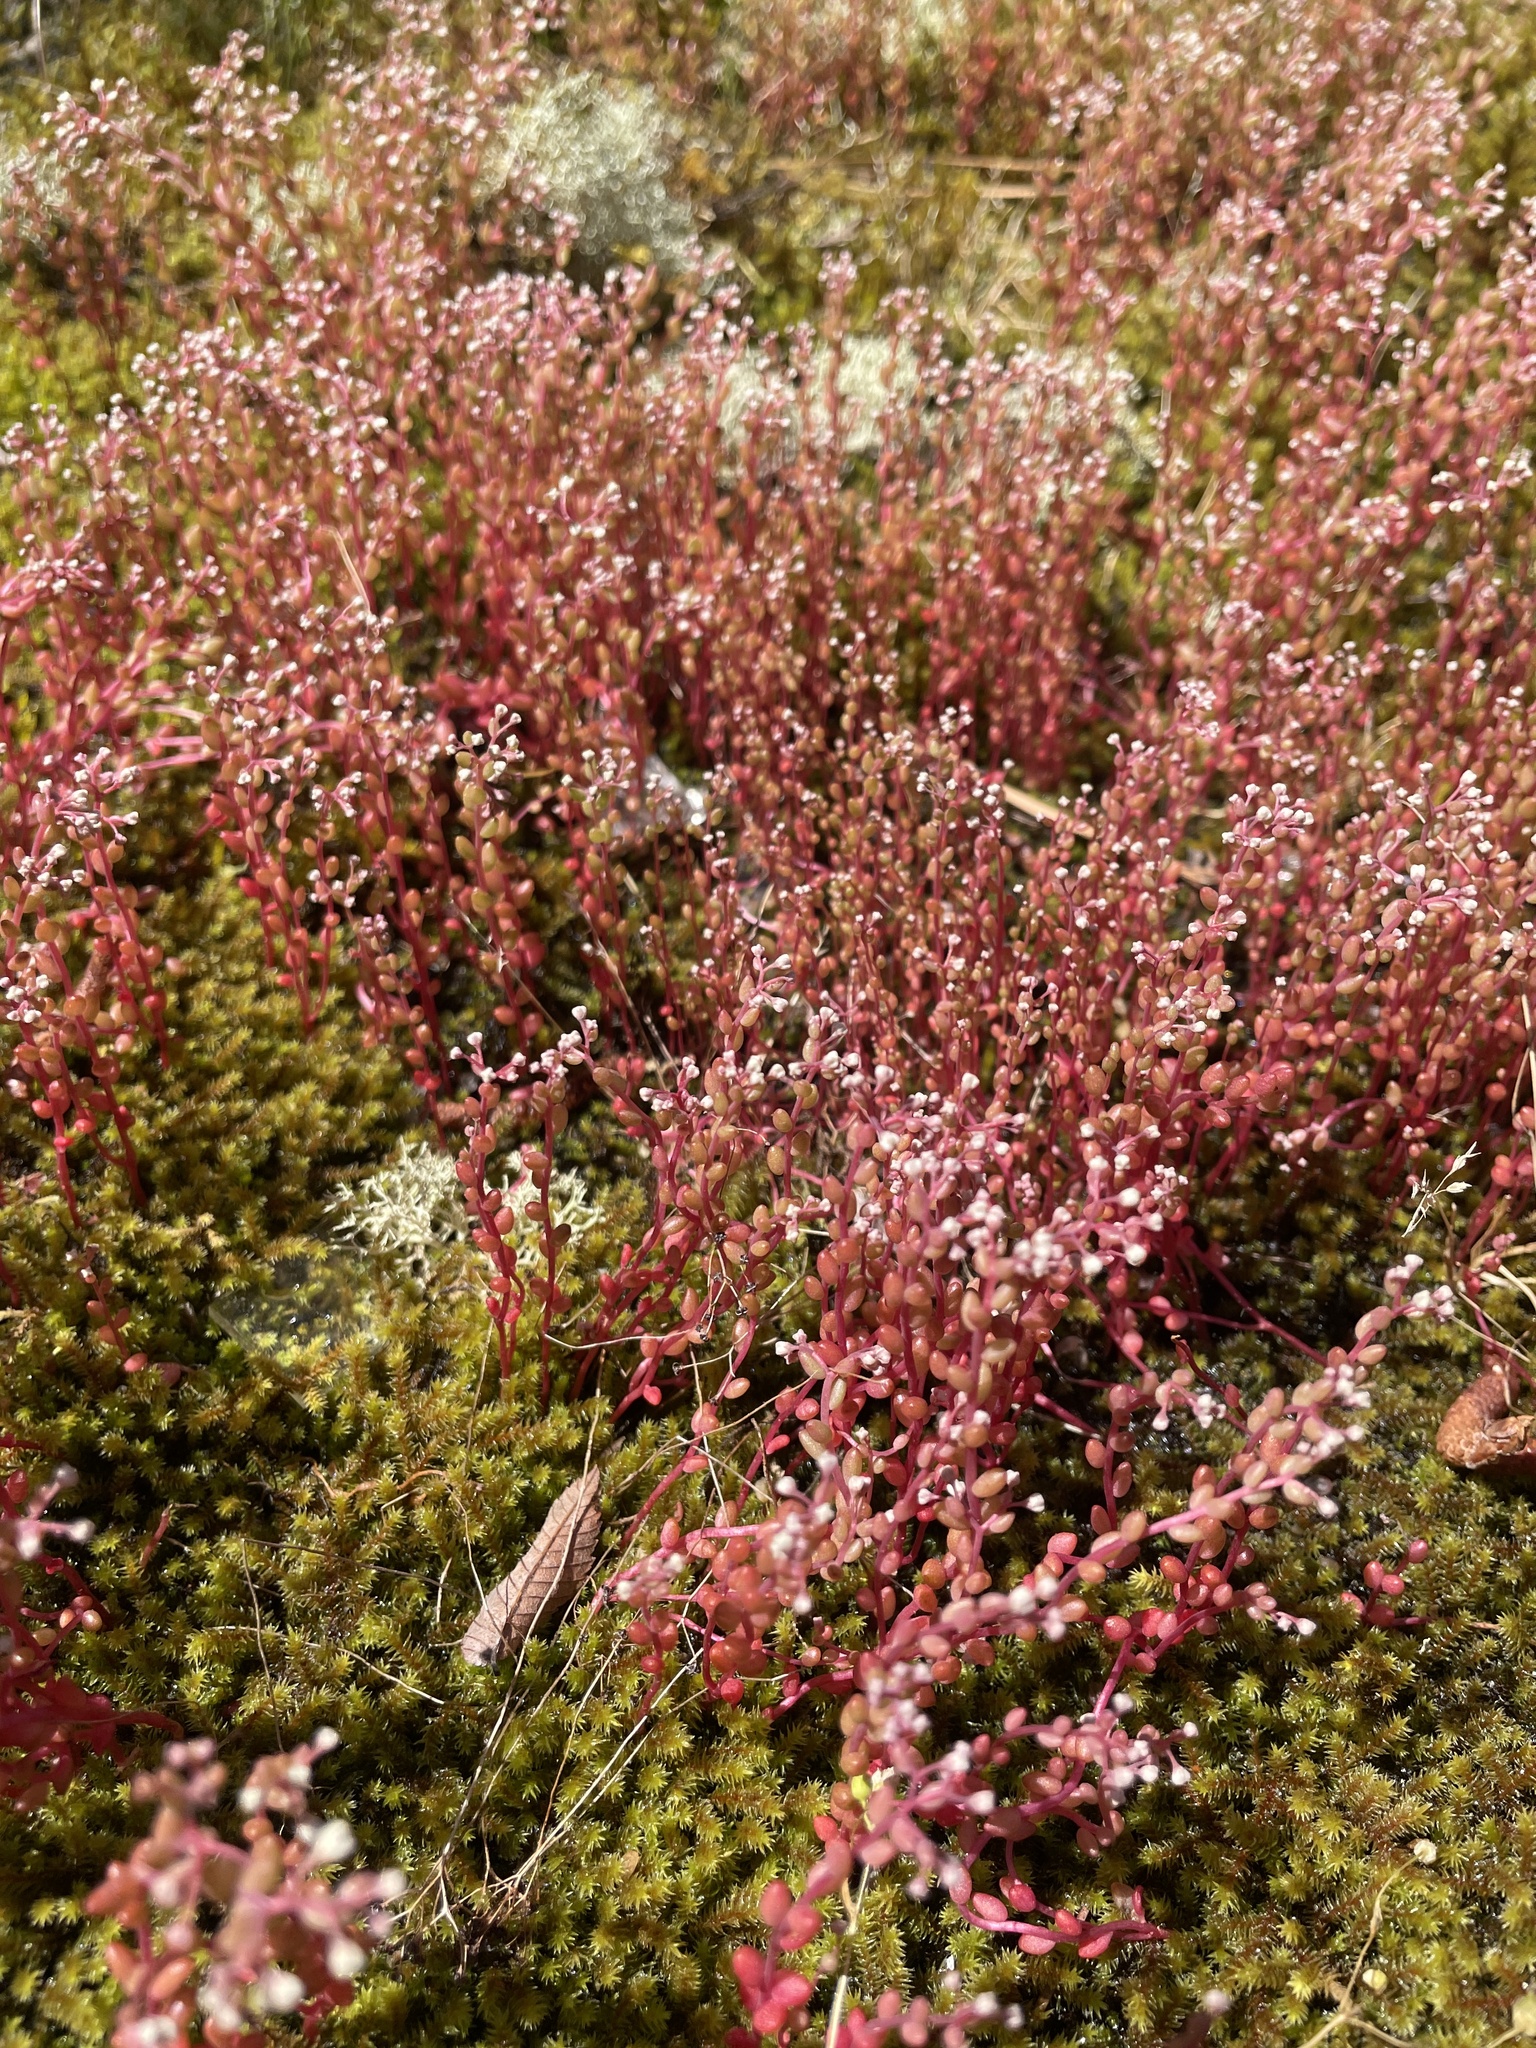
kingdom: Plantae
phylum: Tracheophyta
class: Magnoliopsida
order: Saxifragales
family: Crassulaceae
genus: Sedum
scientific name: Sedum smallii
